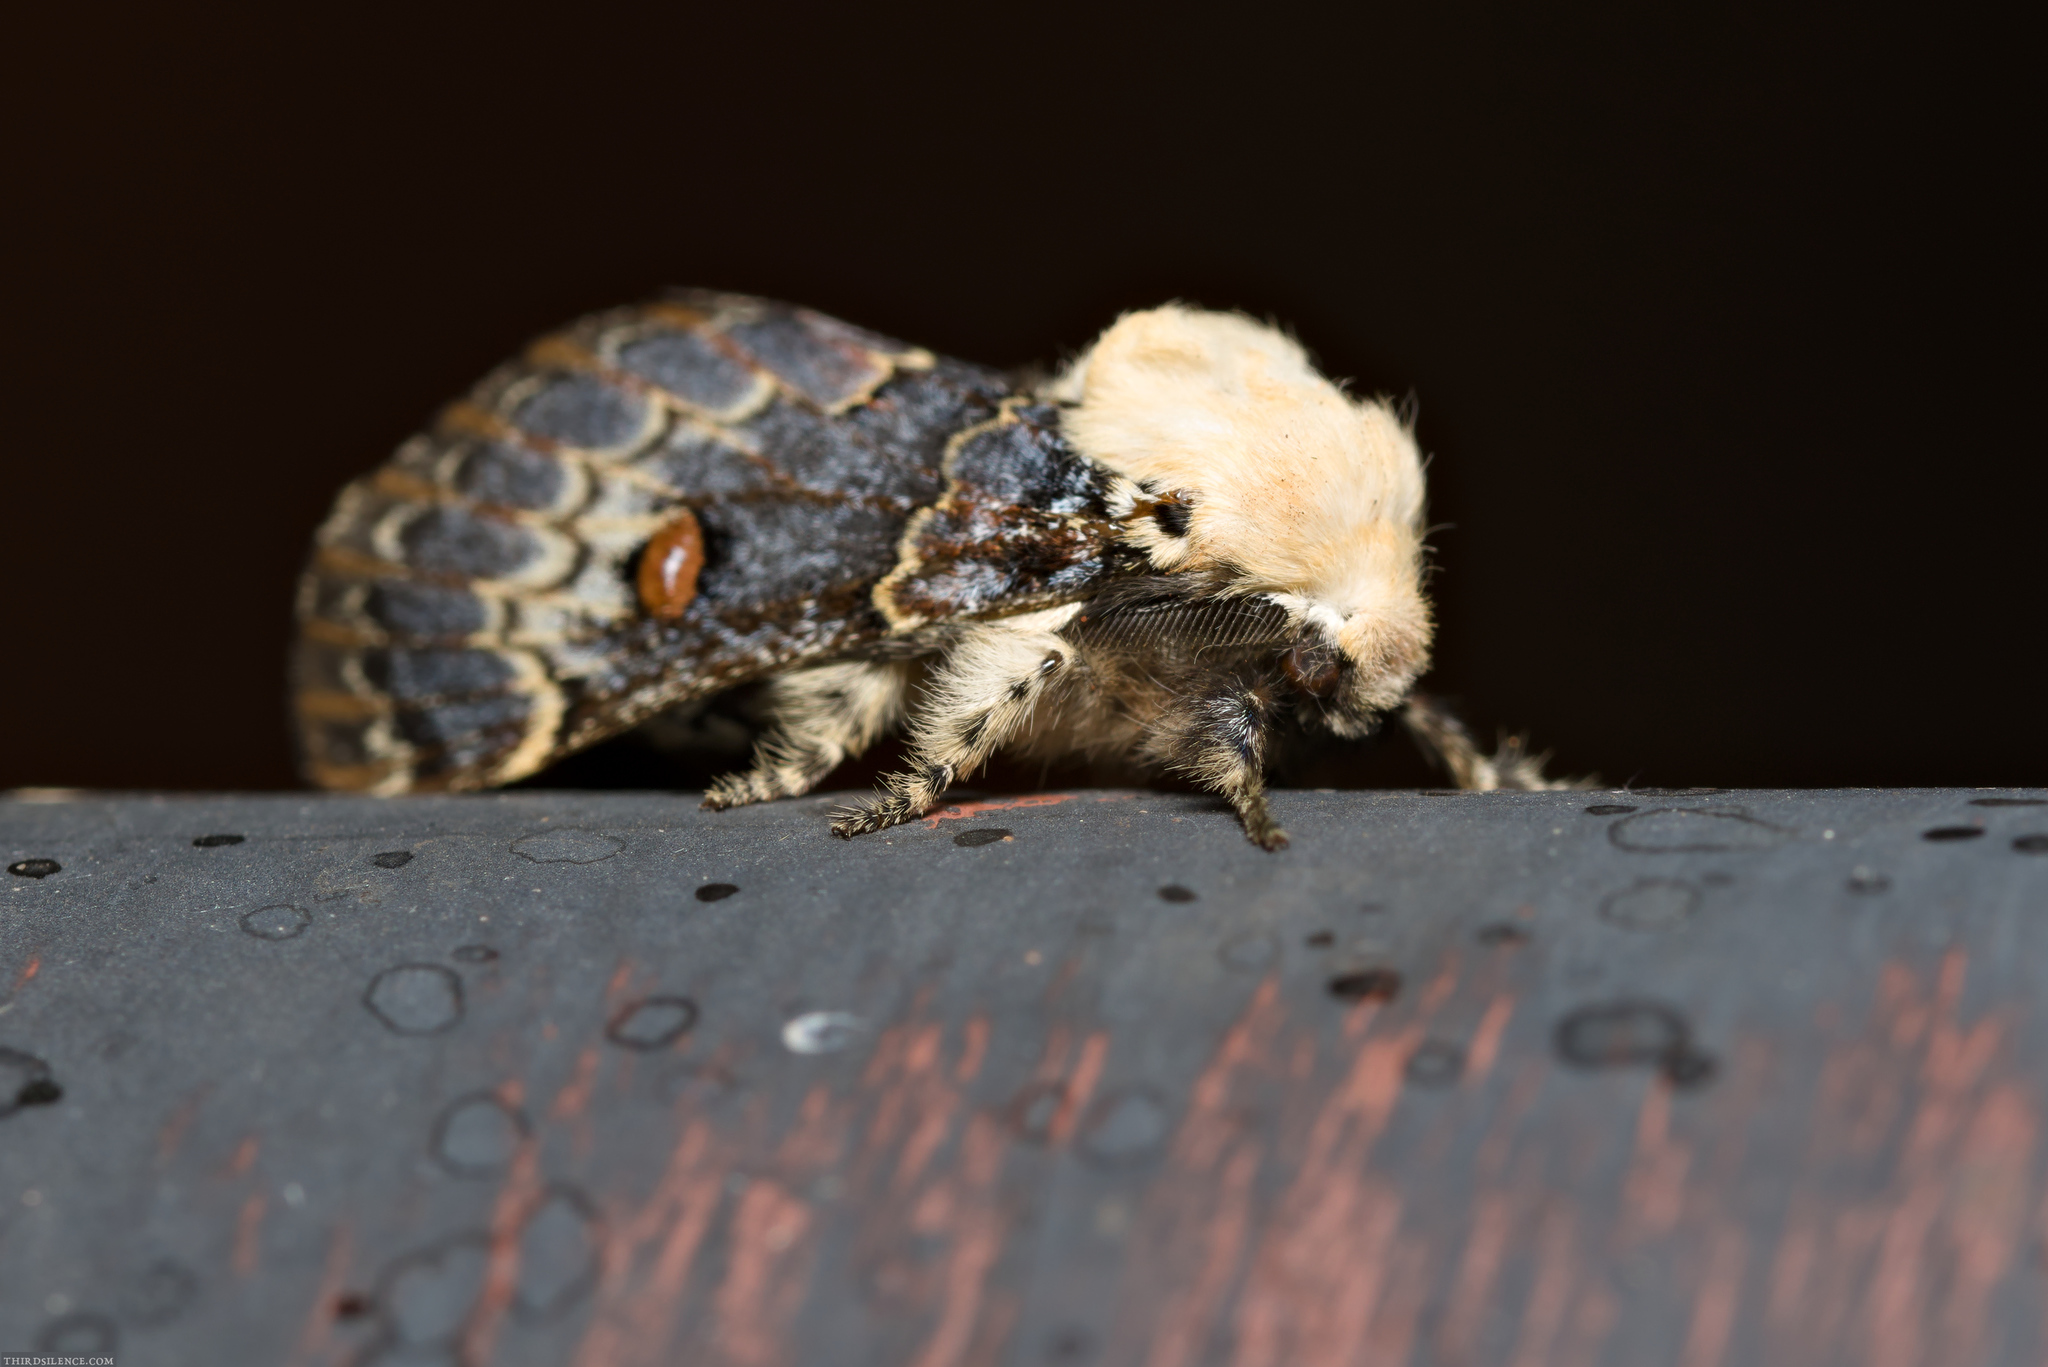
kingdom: Animalia
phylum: Arthropoda
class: Insecta
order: Lepidoptera
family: Lasiocampidae
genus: Genduara
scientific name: Genduara acedesta
